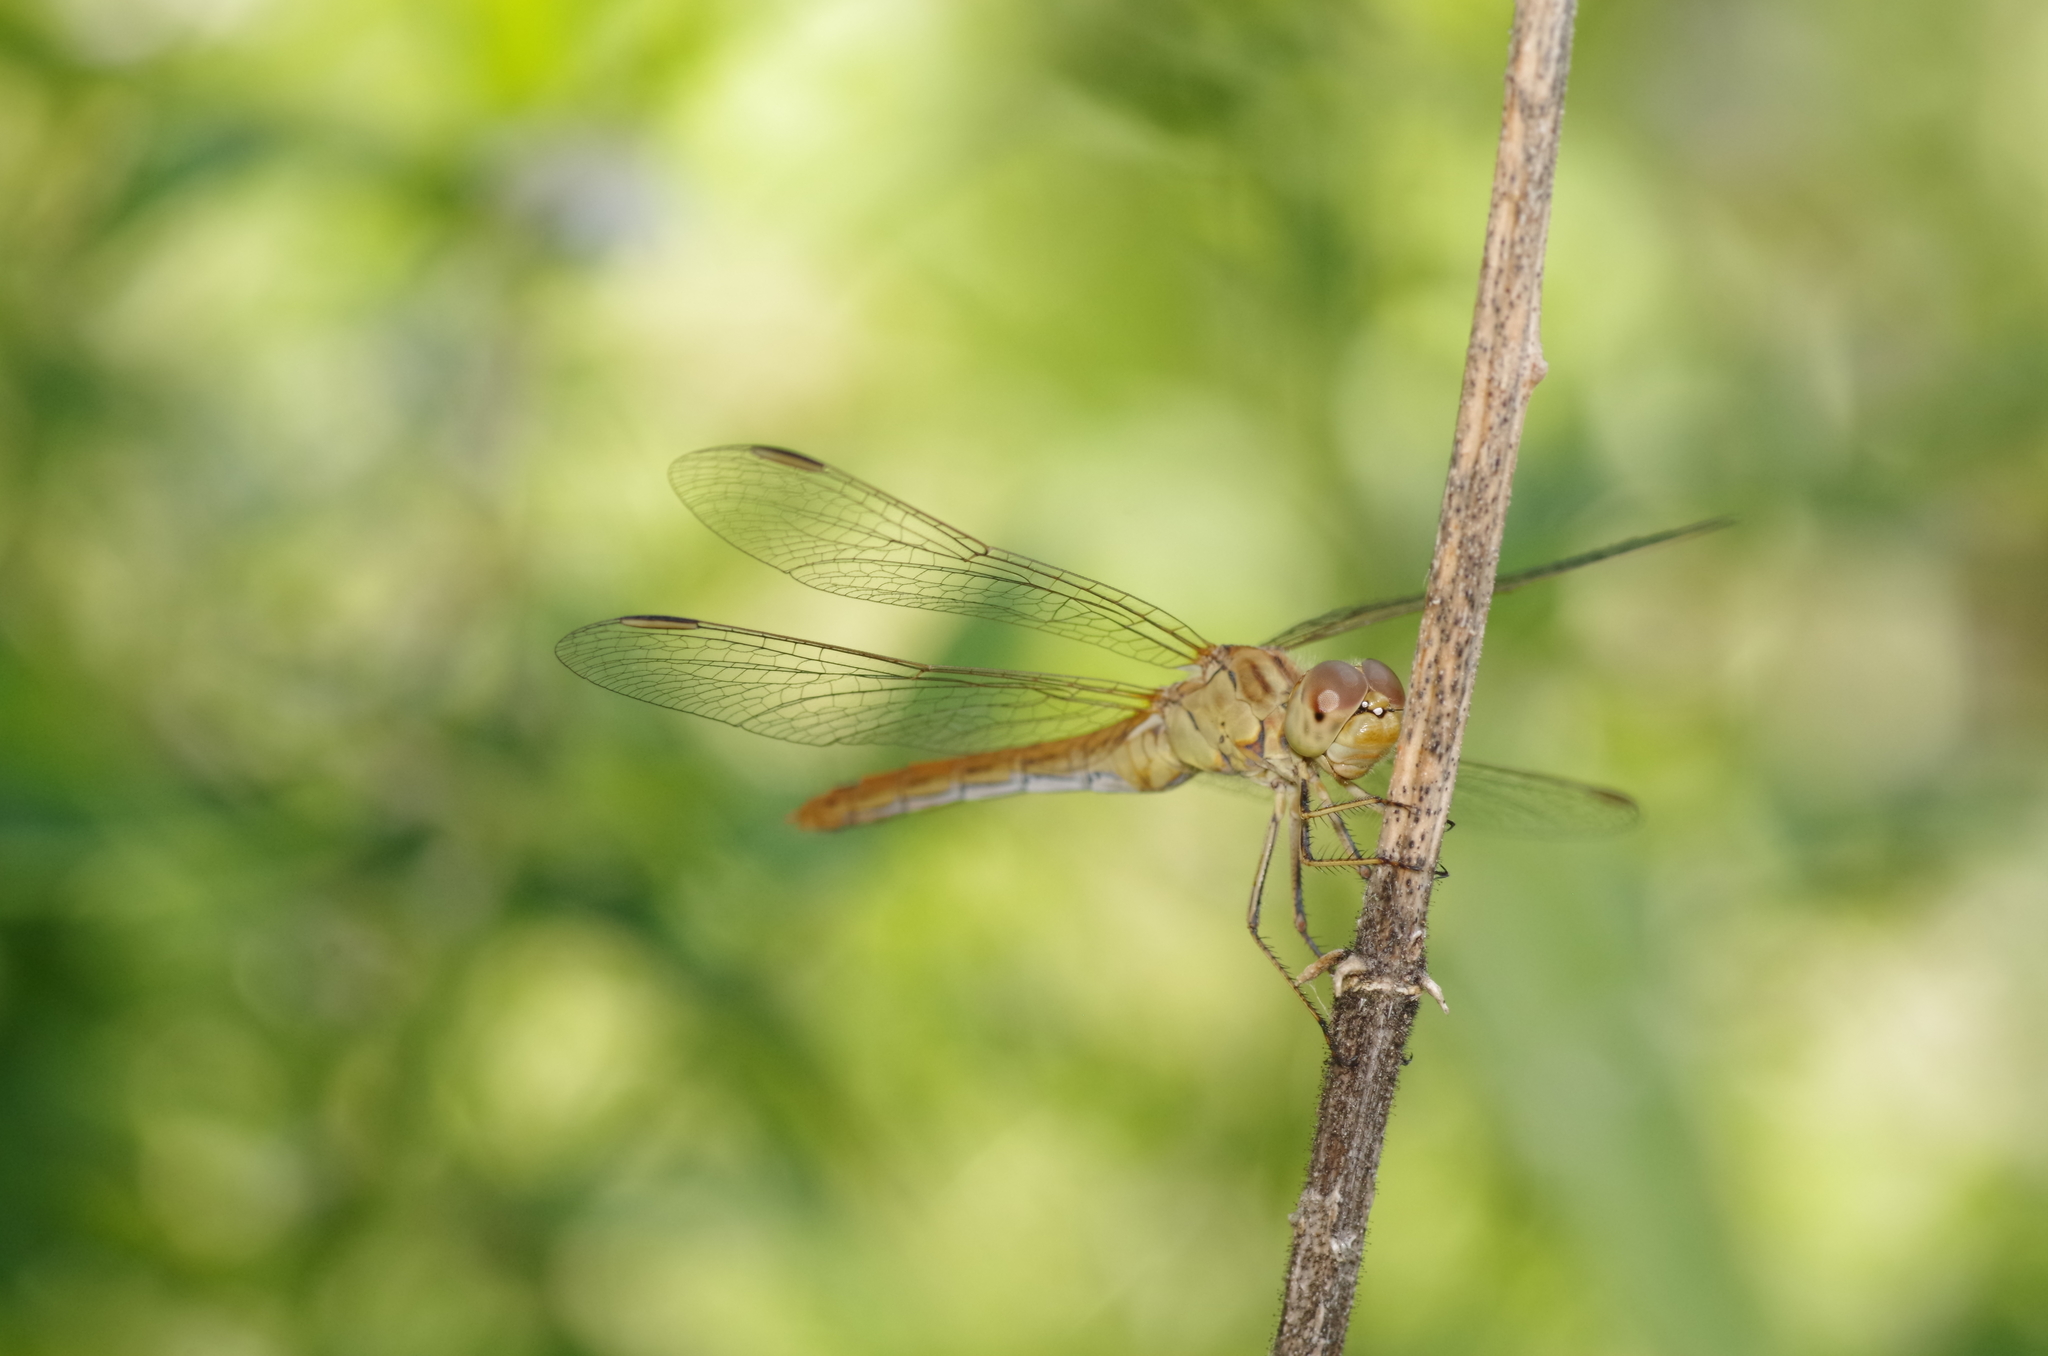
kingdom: Animalia
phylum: Arthropoda
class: Insecta
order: Odonata
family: Libellulidae
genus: Sympetrum
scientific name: Sympetrum meridionale
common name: Southern darter
